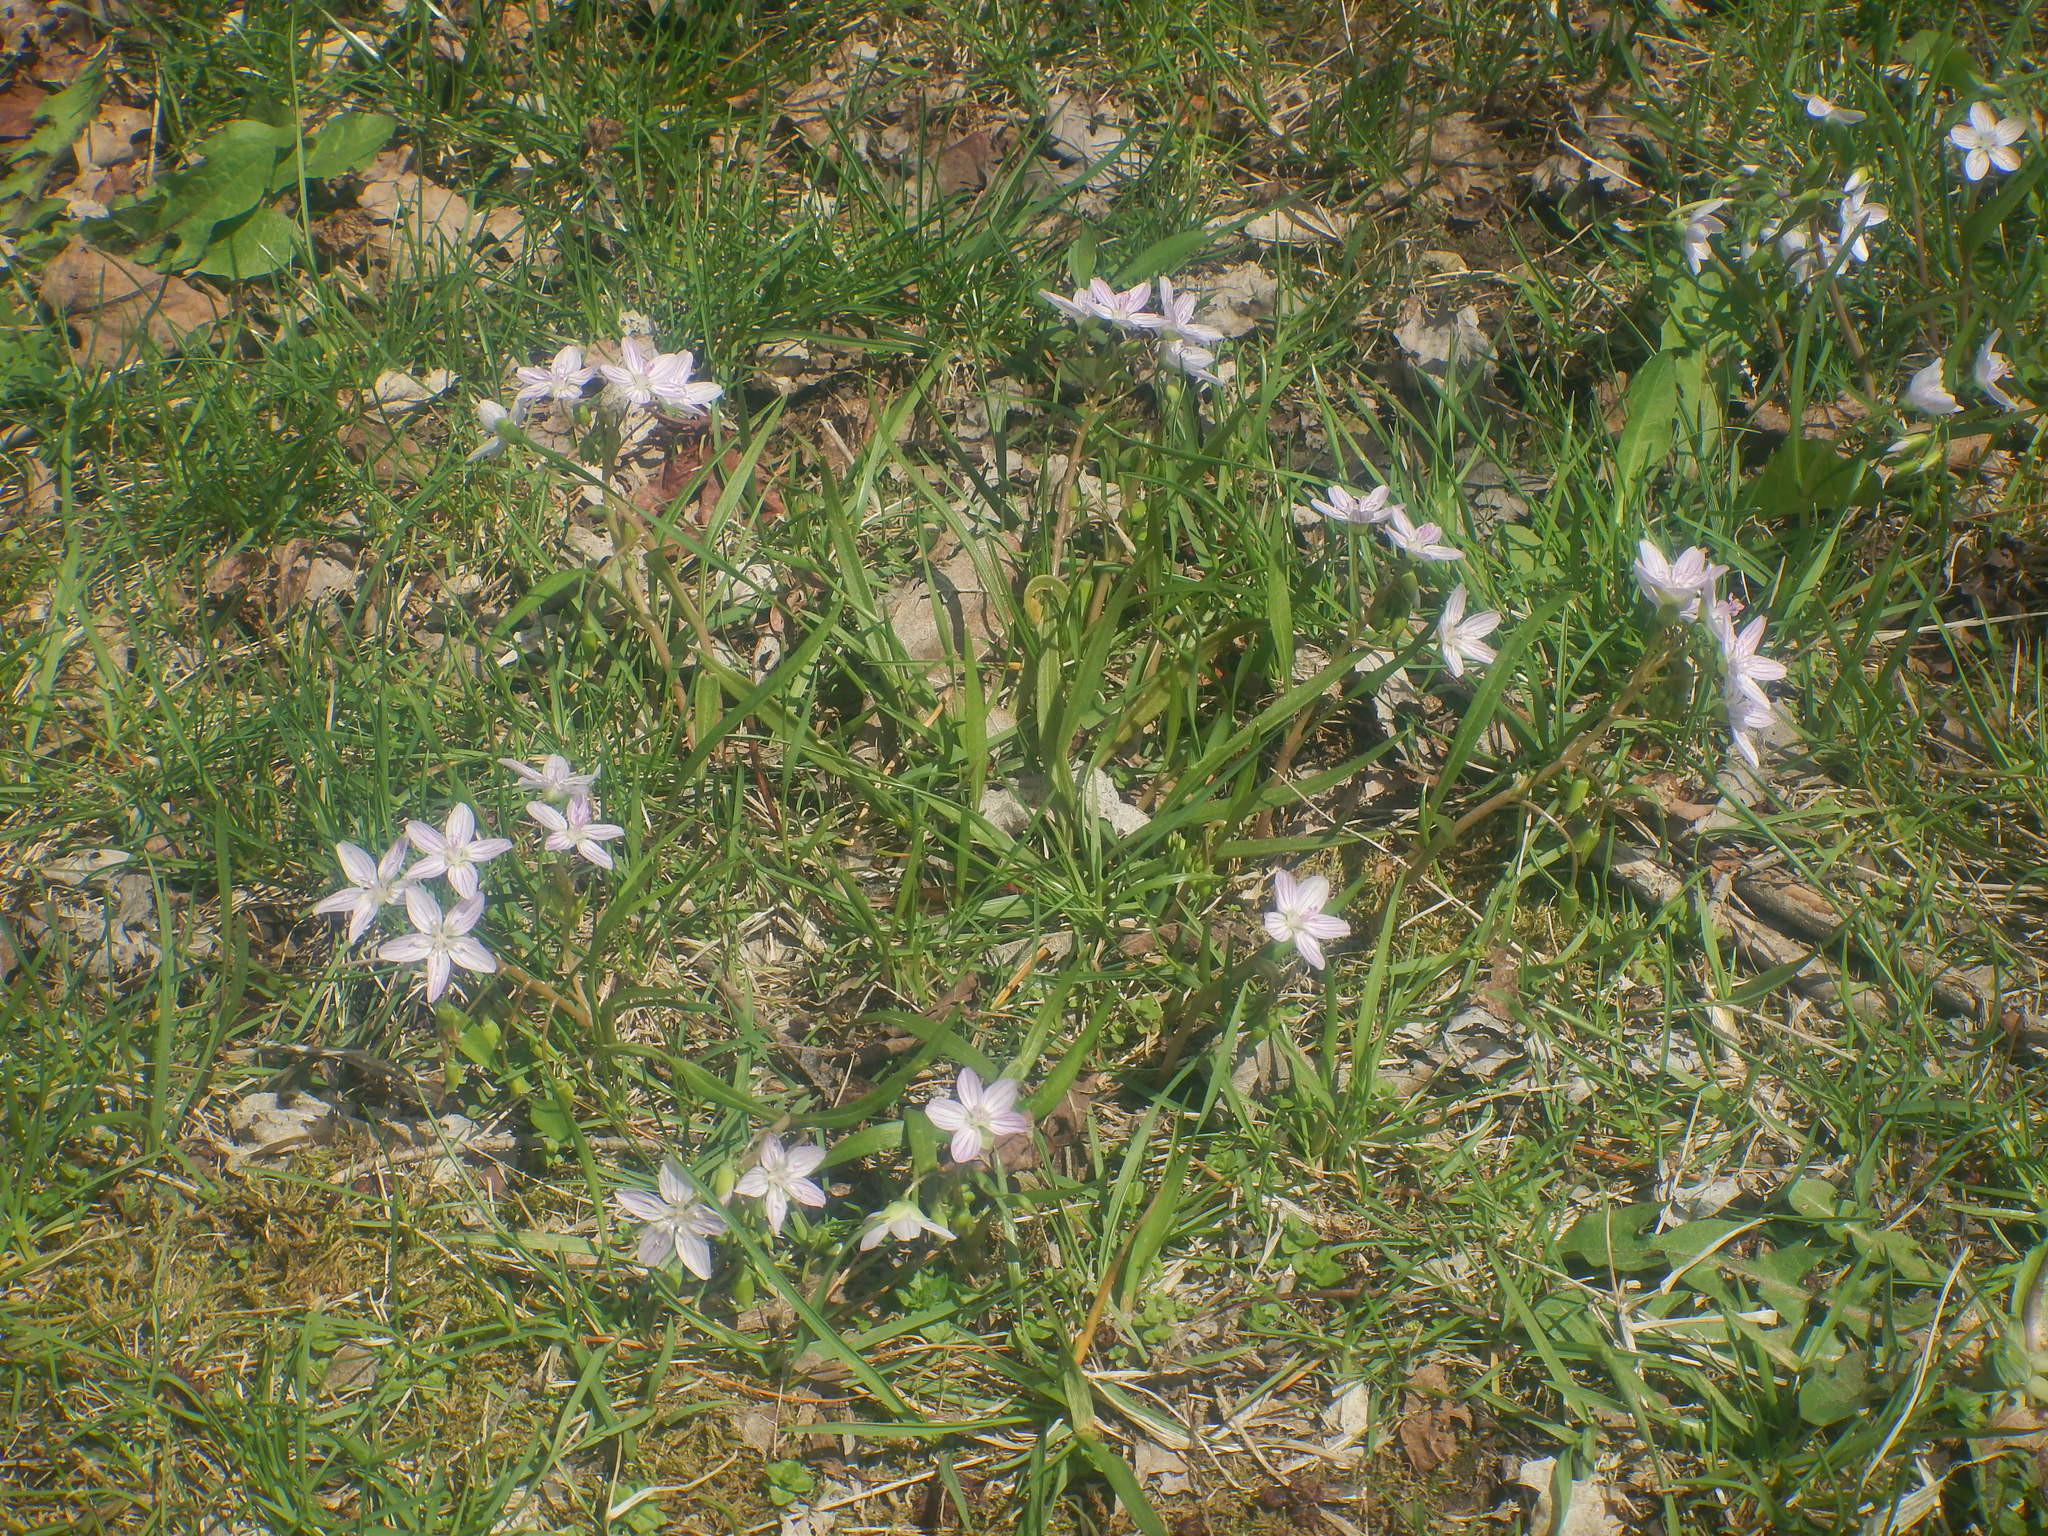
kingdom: Plantae
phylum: Tracheophyta
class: Magnoliopsida
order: Caryophyllales
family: Montiaceae
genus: Claytonia
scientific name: Claytonia virginica
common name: Virginia springbeauty
